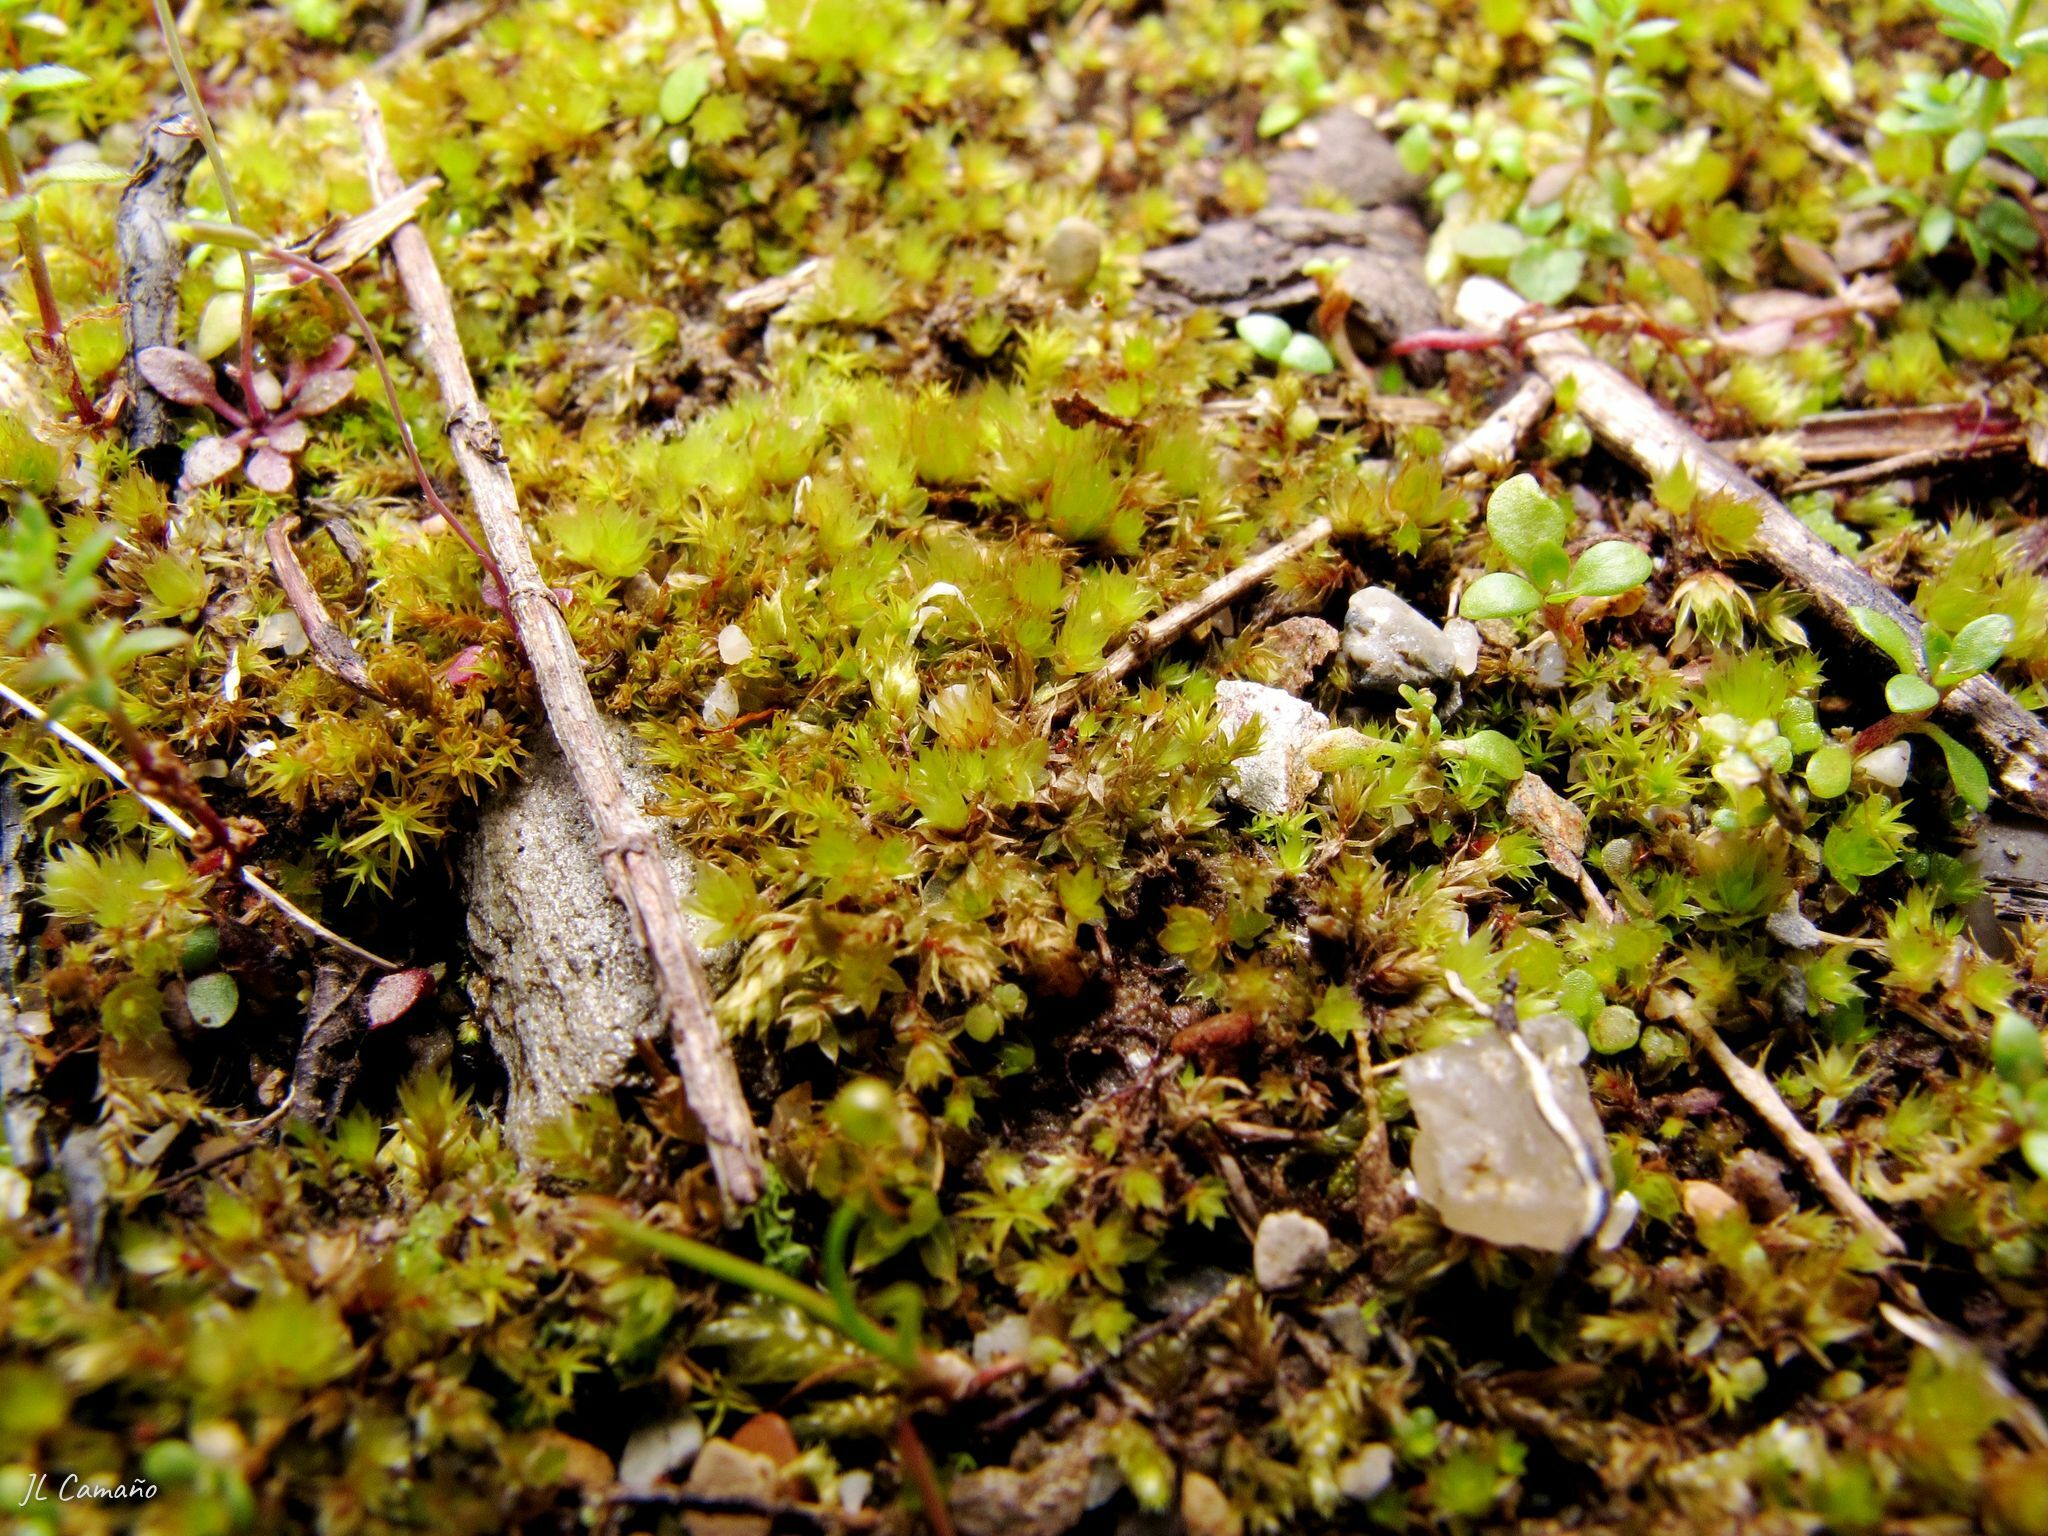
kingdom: Plantae
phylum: Bryophyta
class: Bryopsida
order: Funariales
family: Funariaceae
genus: Entosthodon
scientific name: Entosthodon fascicularis
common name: Hasselquist's hyssop
